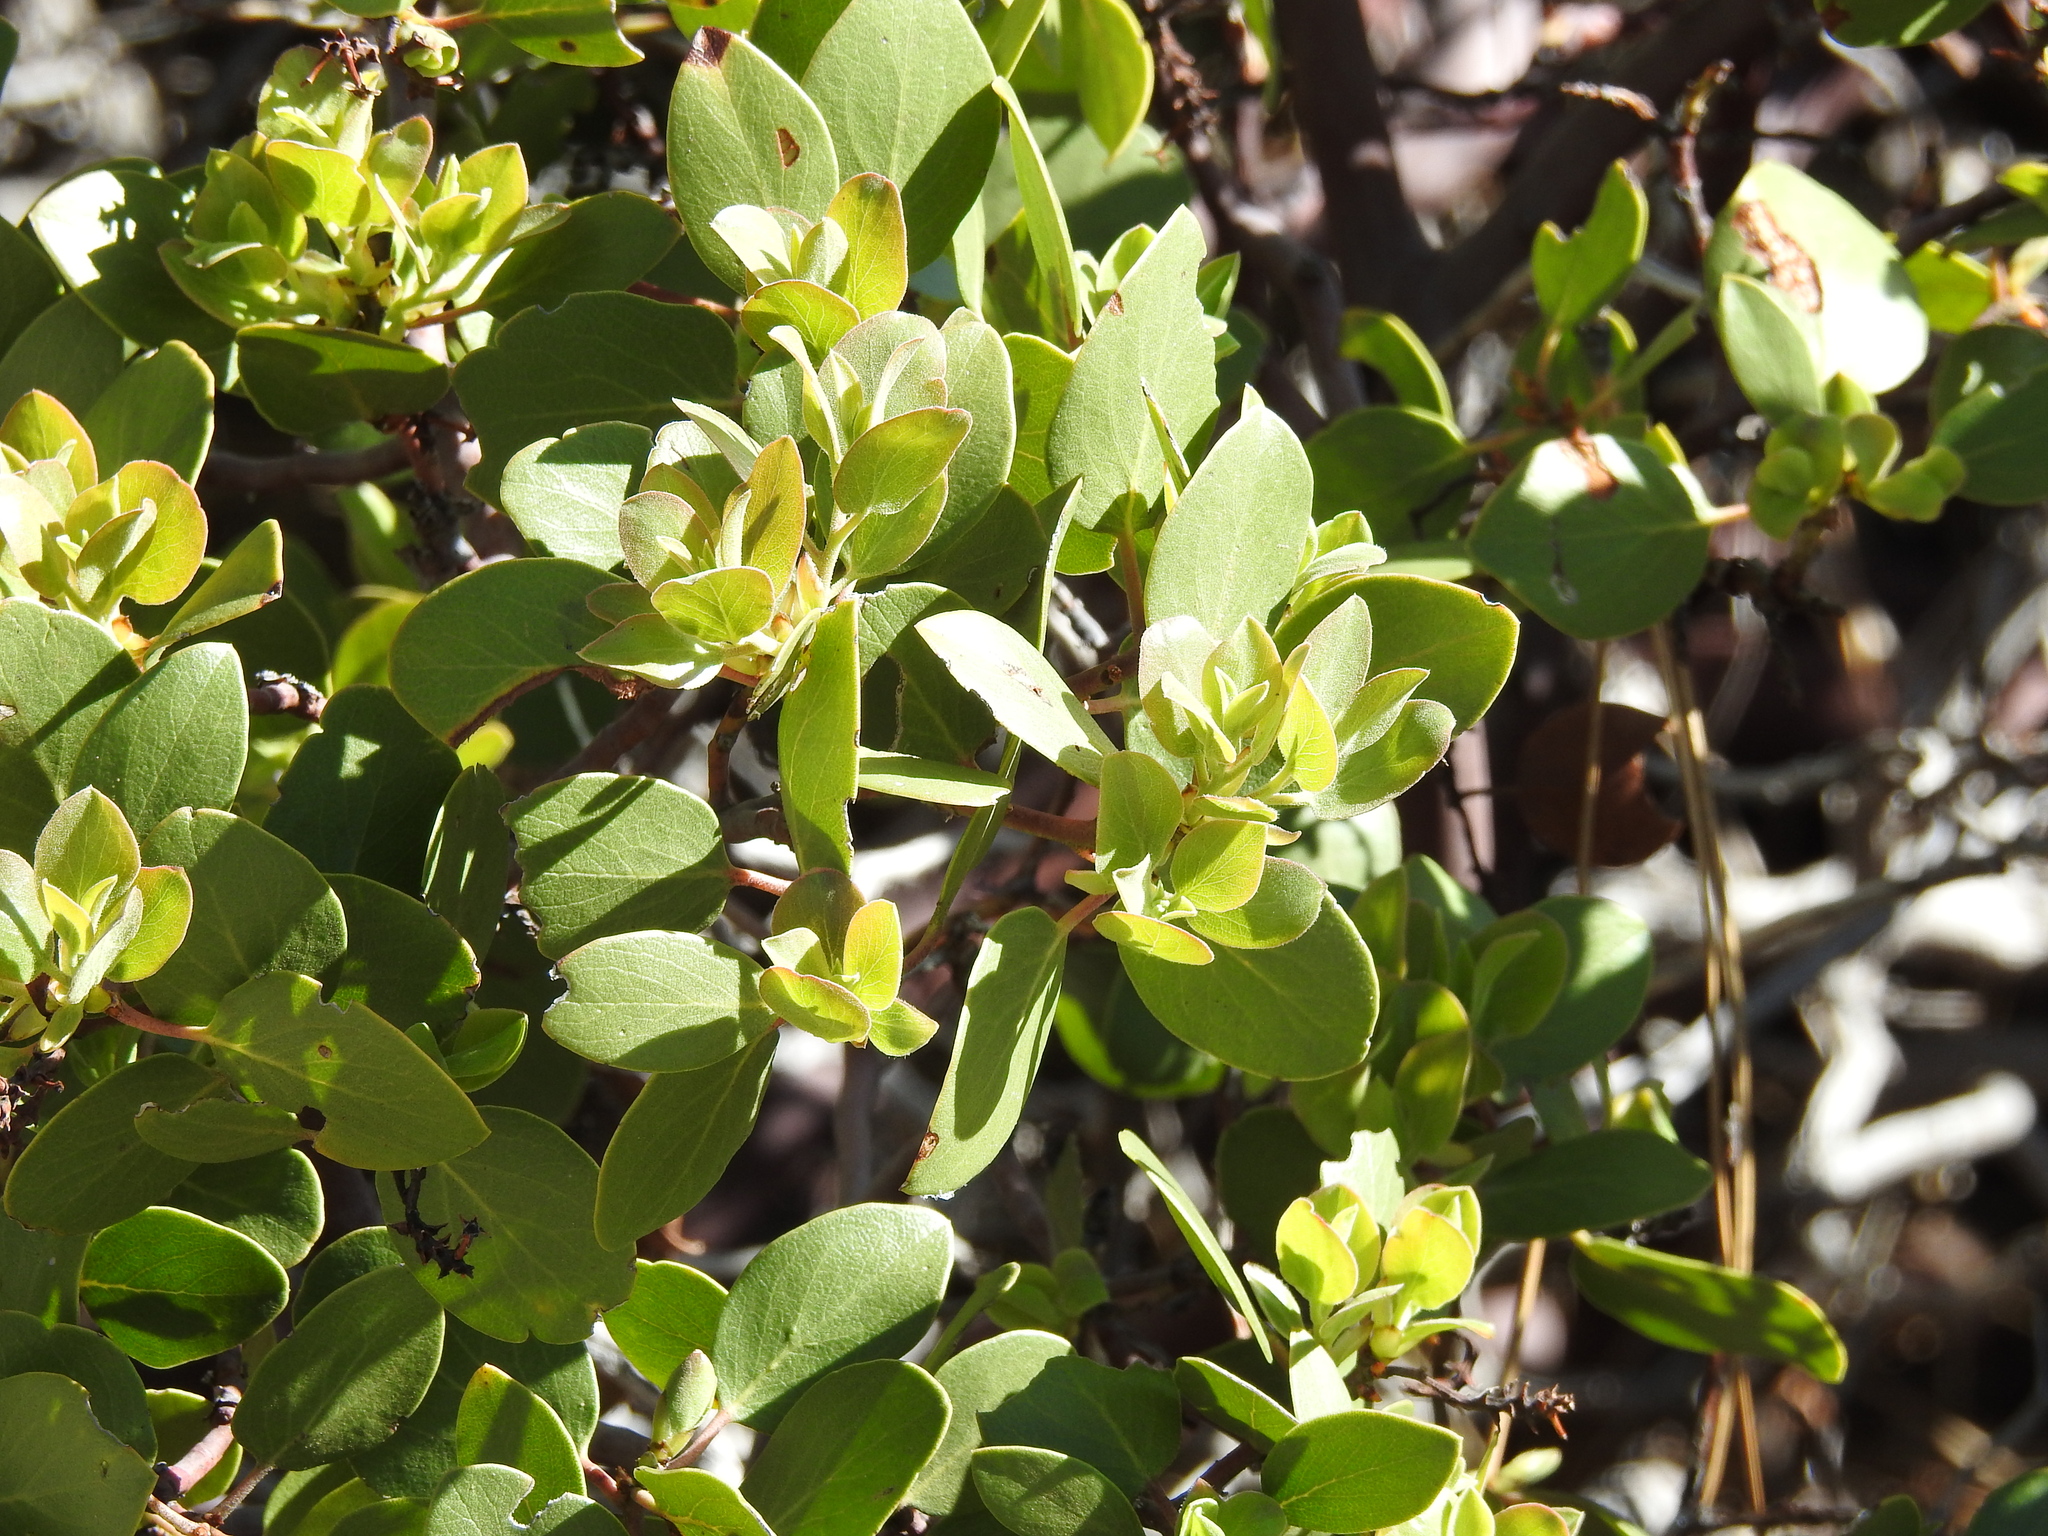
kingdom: Plantae
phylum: Tracheophyta
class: Magnoliopsida
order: Ericales
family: Ericaceae
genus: Arctostaphylos
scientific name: Arctostaphylos patula
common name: Green-leaf manzanita
